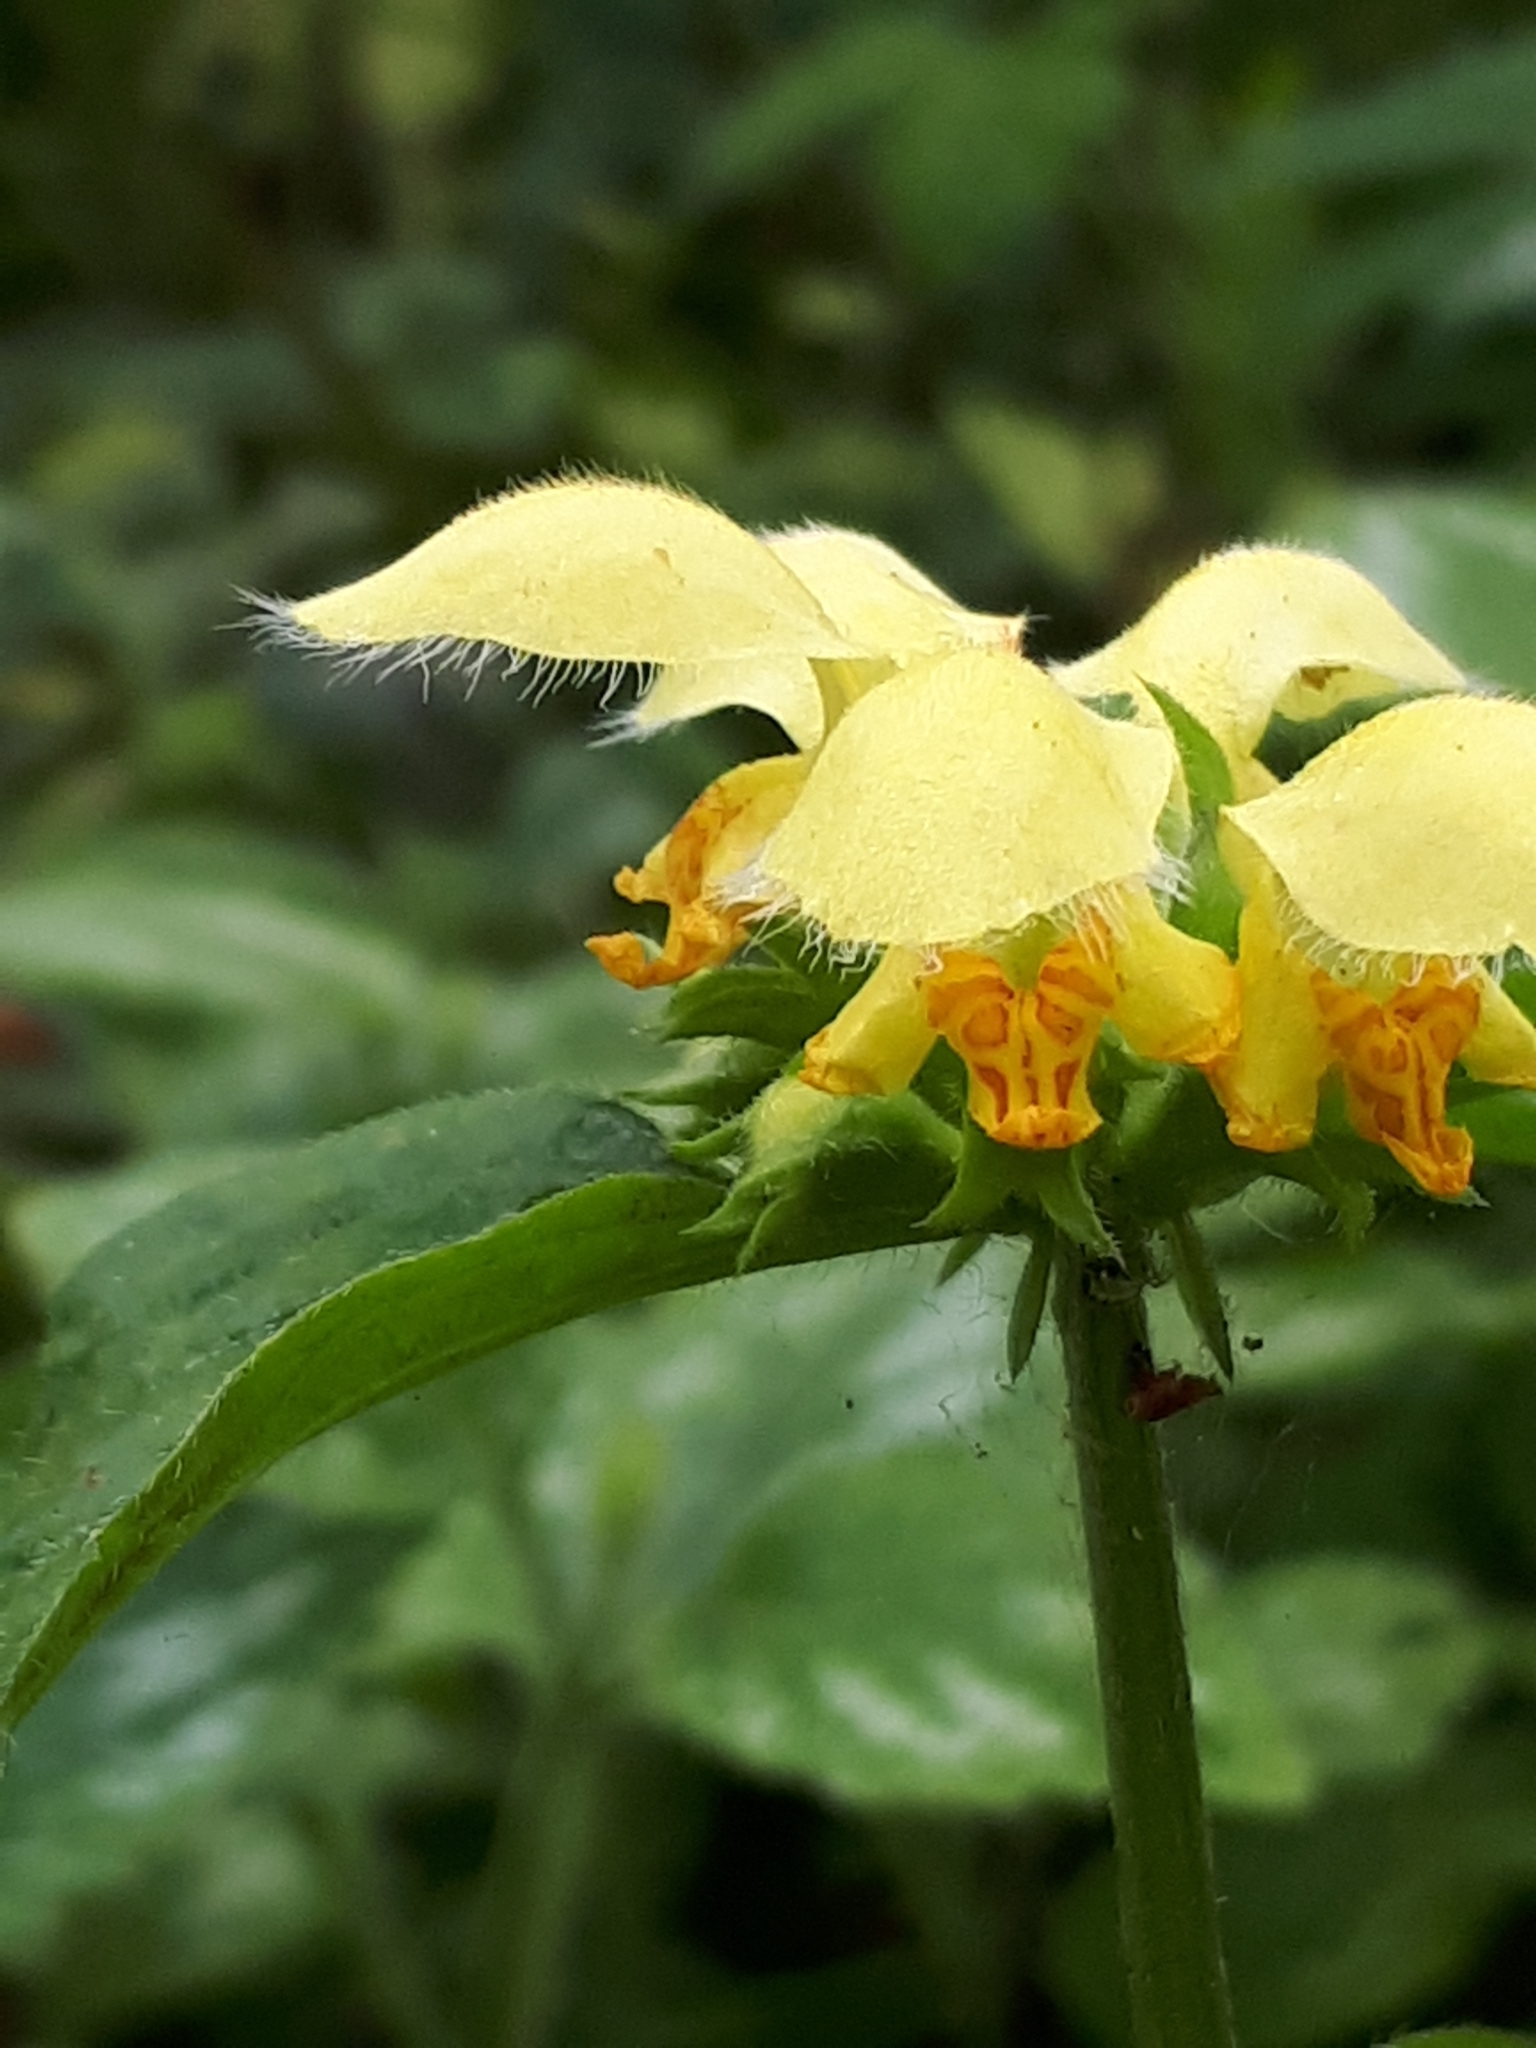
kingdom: Plantae
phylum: Tracheophyta
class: Magnoliopsida
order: Lamiales
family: Lamiaceae
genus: Lamium
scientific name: Lamium galeobdolon
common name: Yellow archangel
